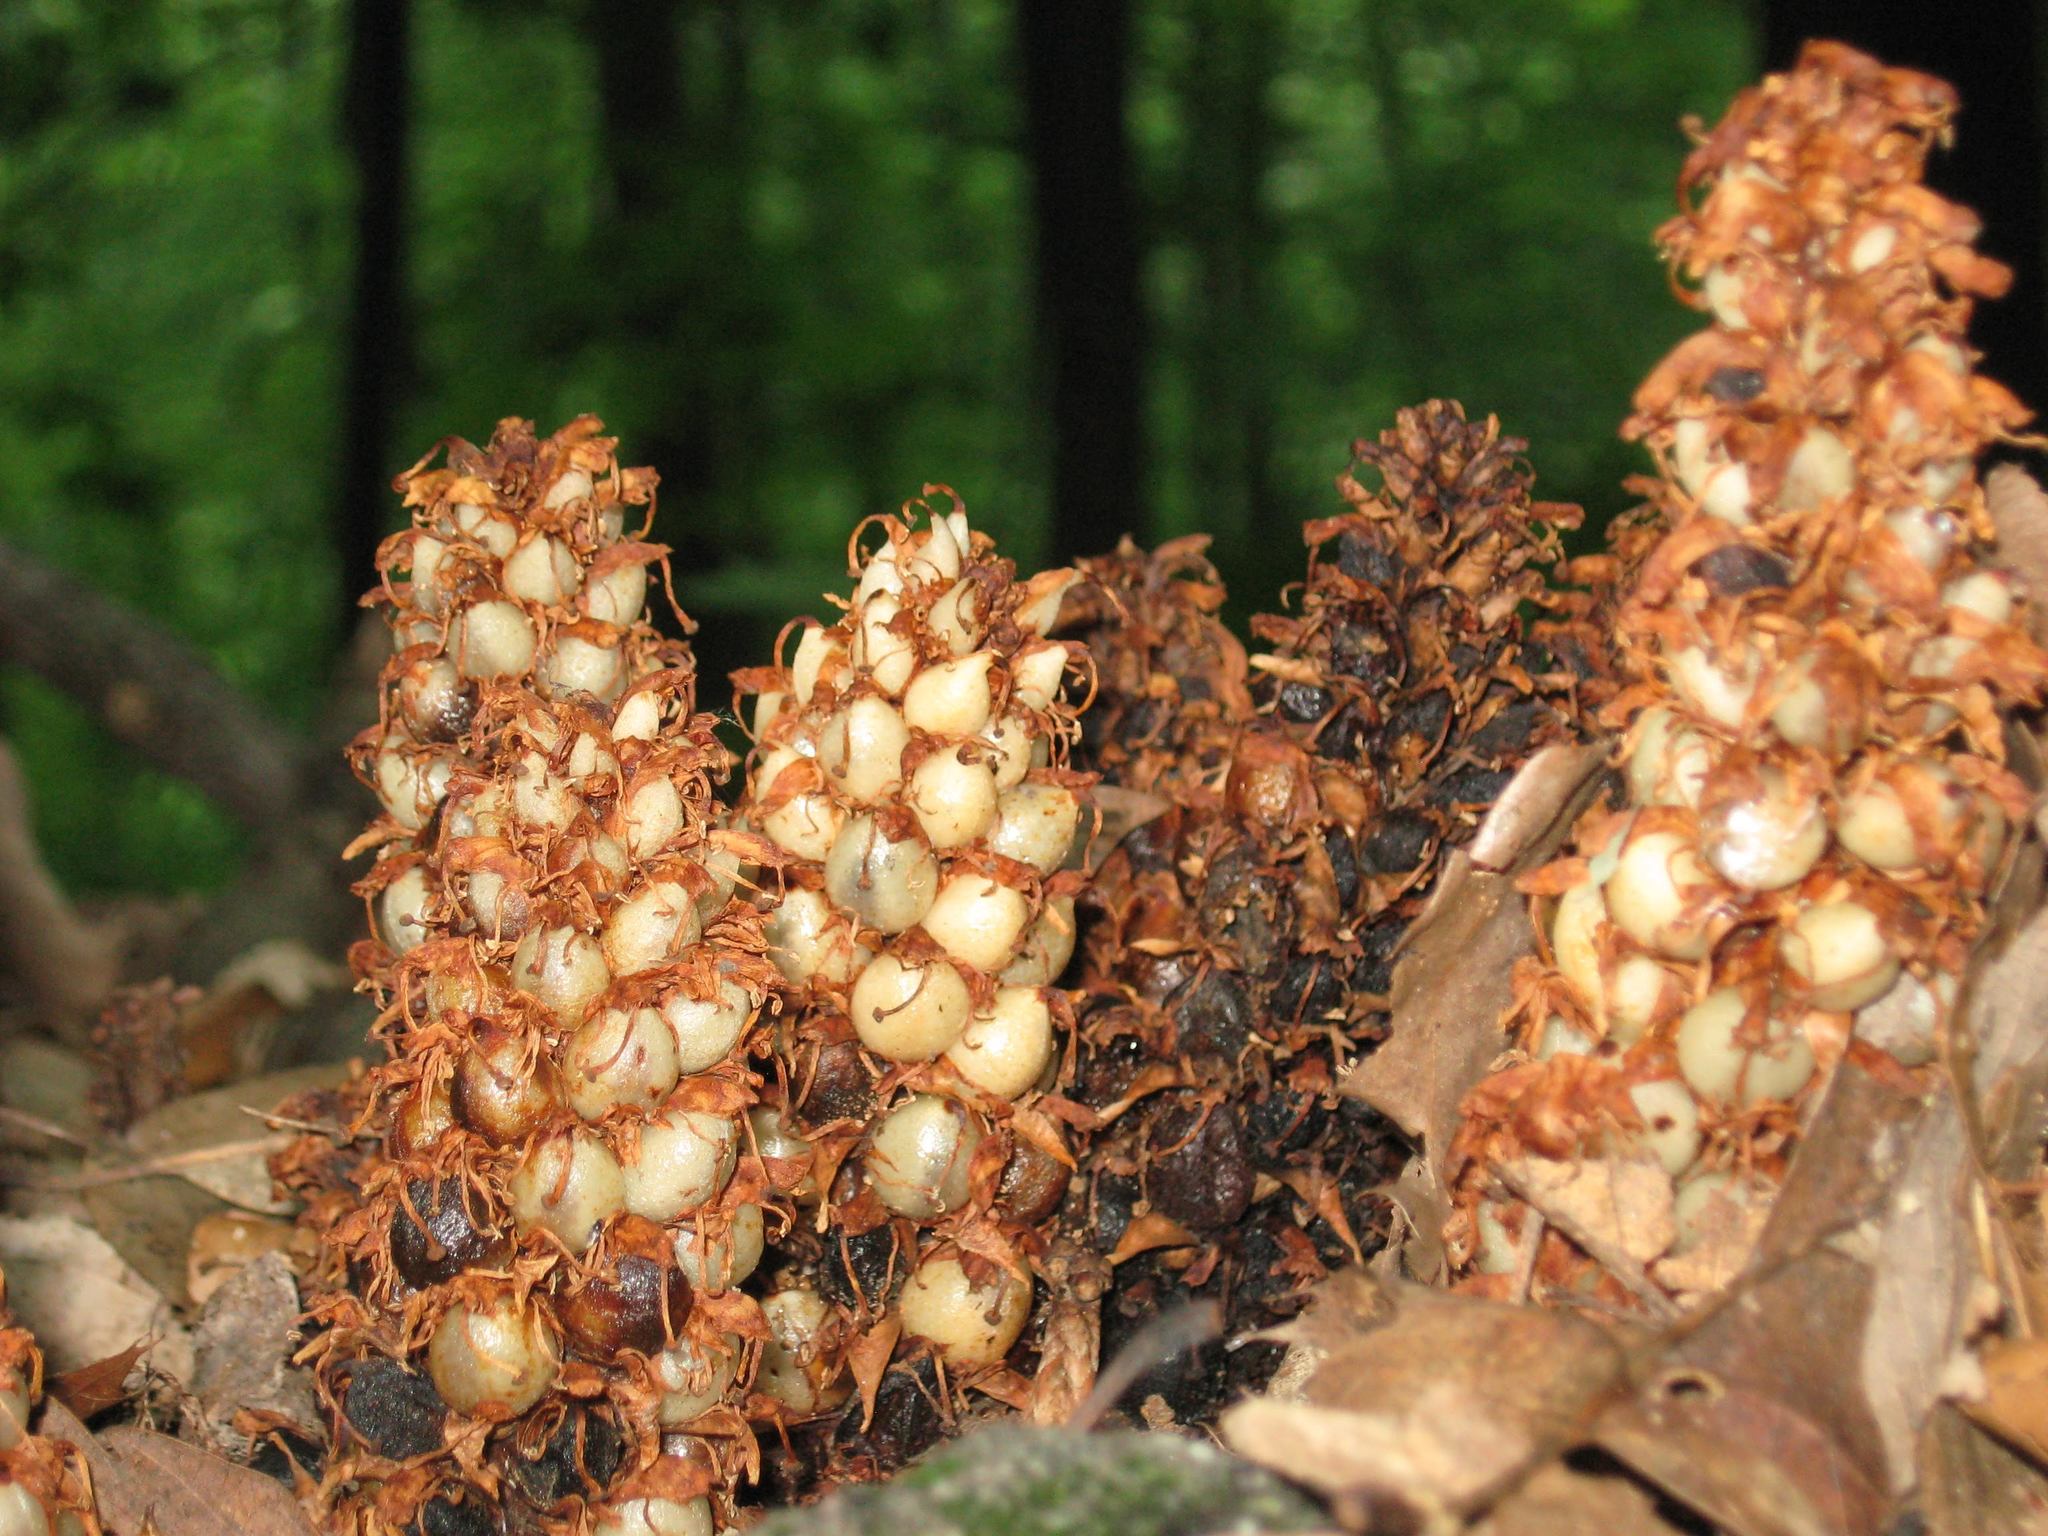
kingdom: Plantae
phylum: Tracheophyta
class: Magnoliopsida
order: Lamiales
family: Orobanchaceae
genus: Conopholis
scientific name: Conopholis americana
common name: American cancer-root
